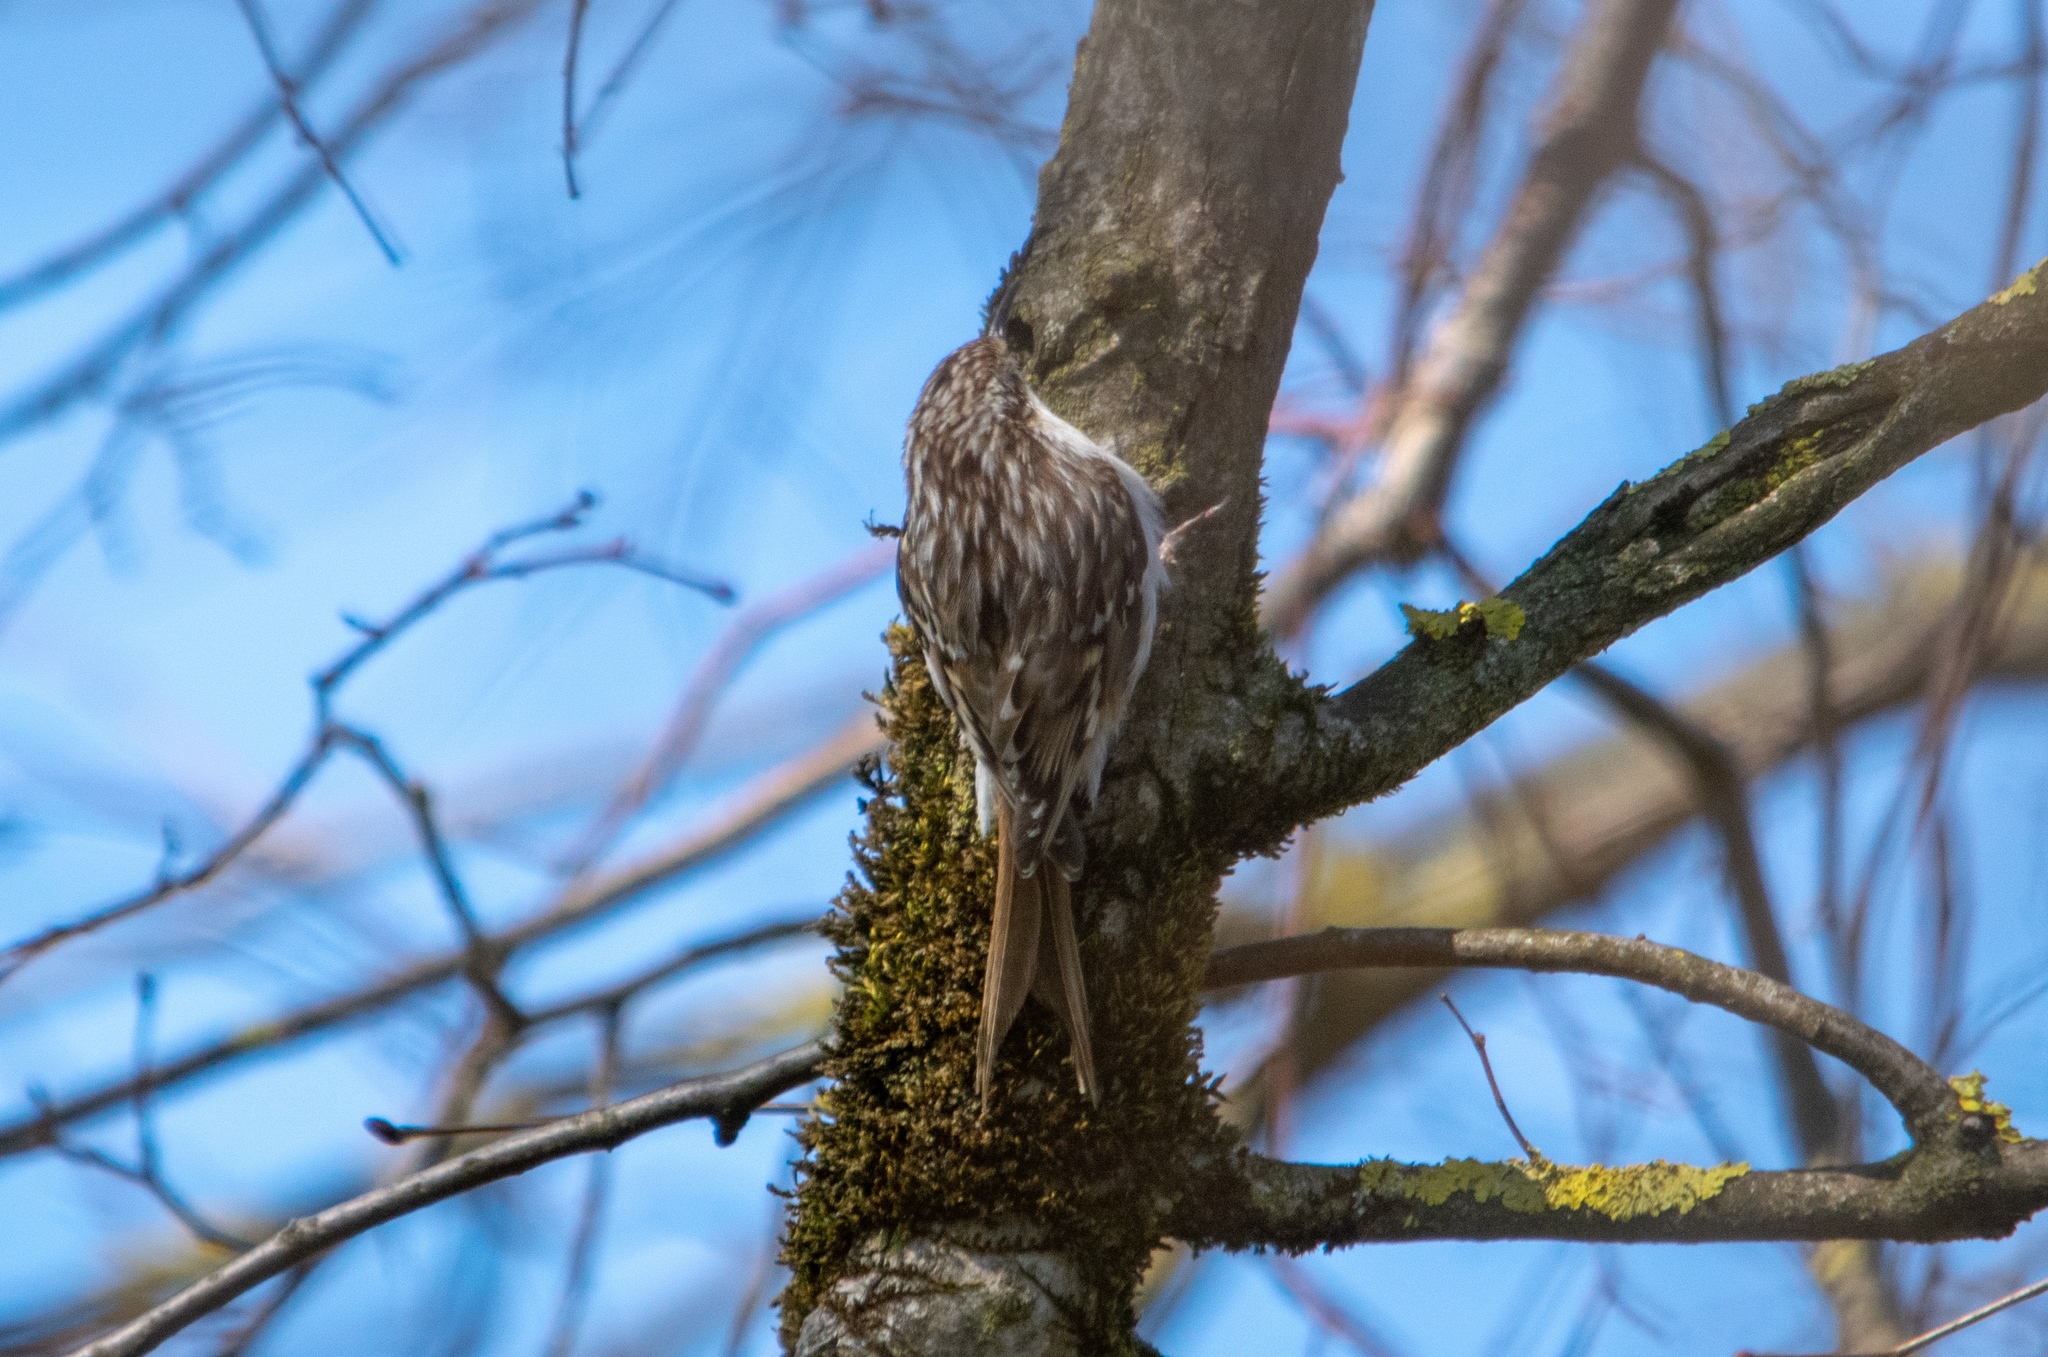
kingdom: Animalia
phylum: Chordata
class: Aves
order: Passeriformes
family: Certhiidae
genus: Certhia
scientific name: Certhia brachydactyla
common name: Short-toed treecreeper
